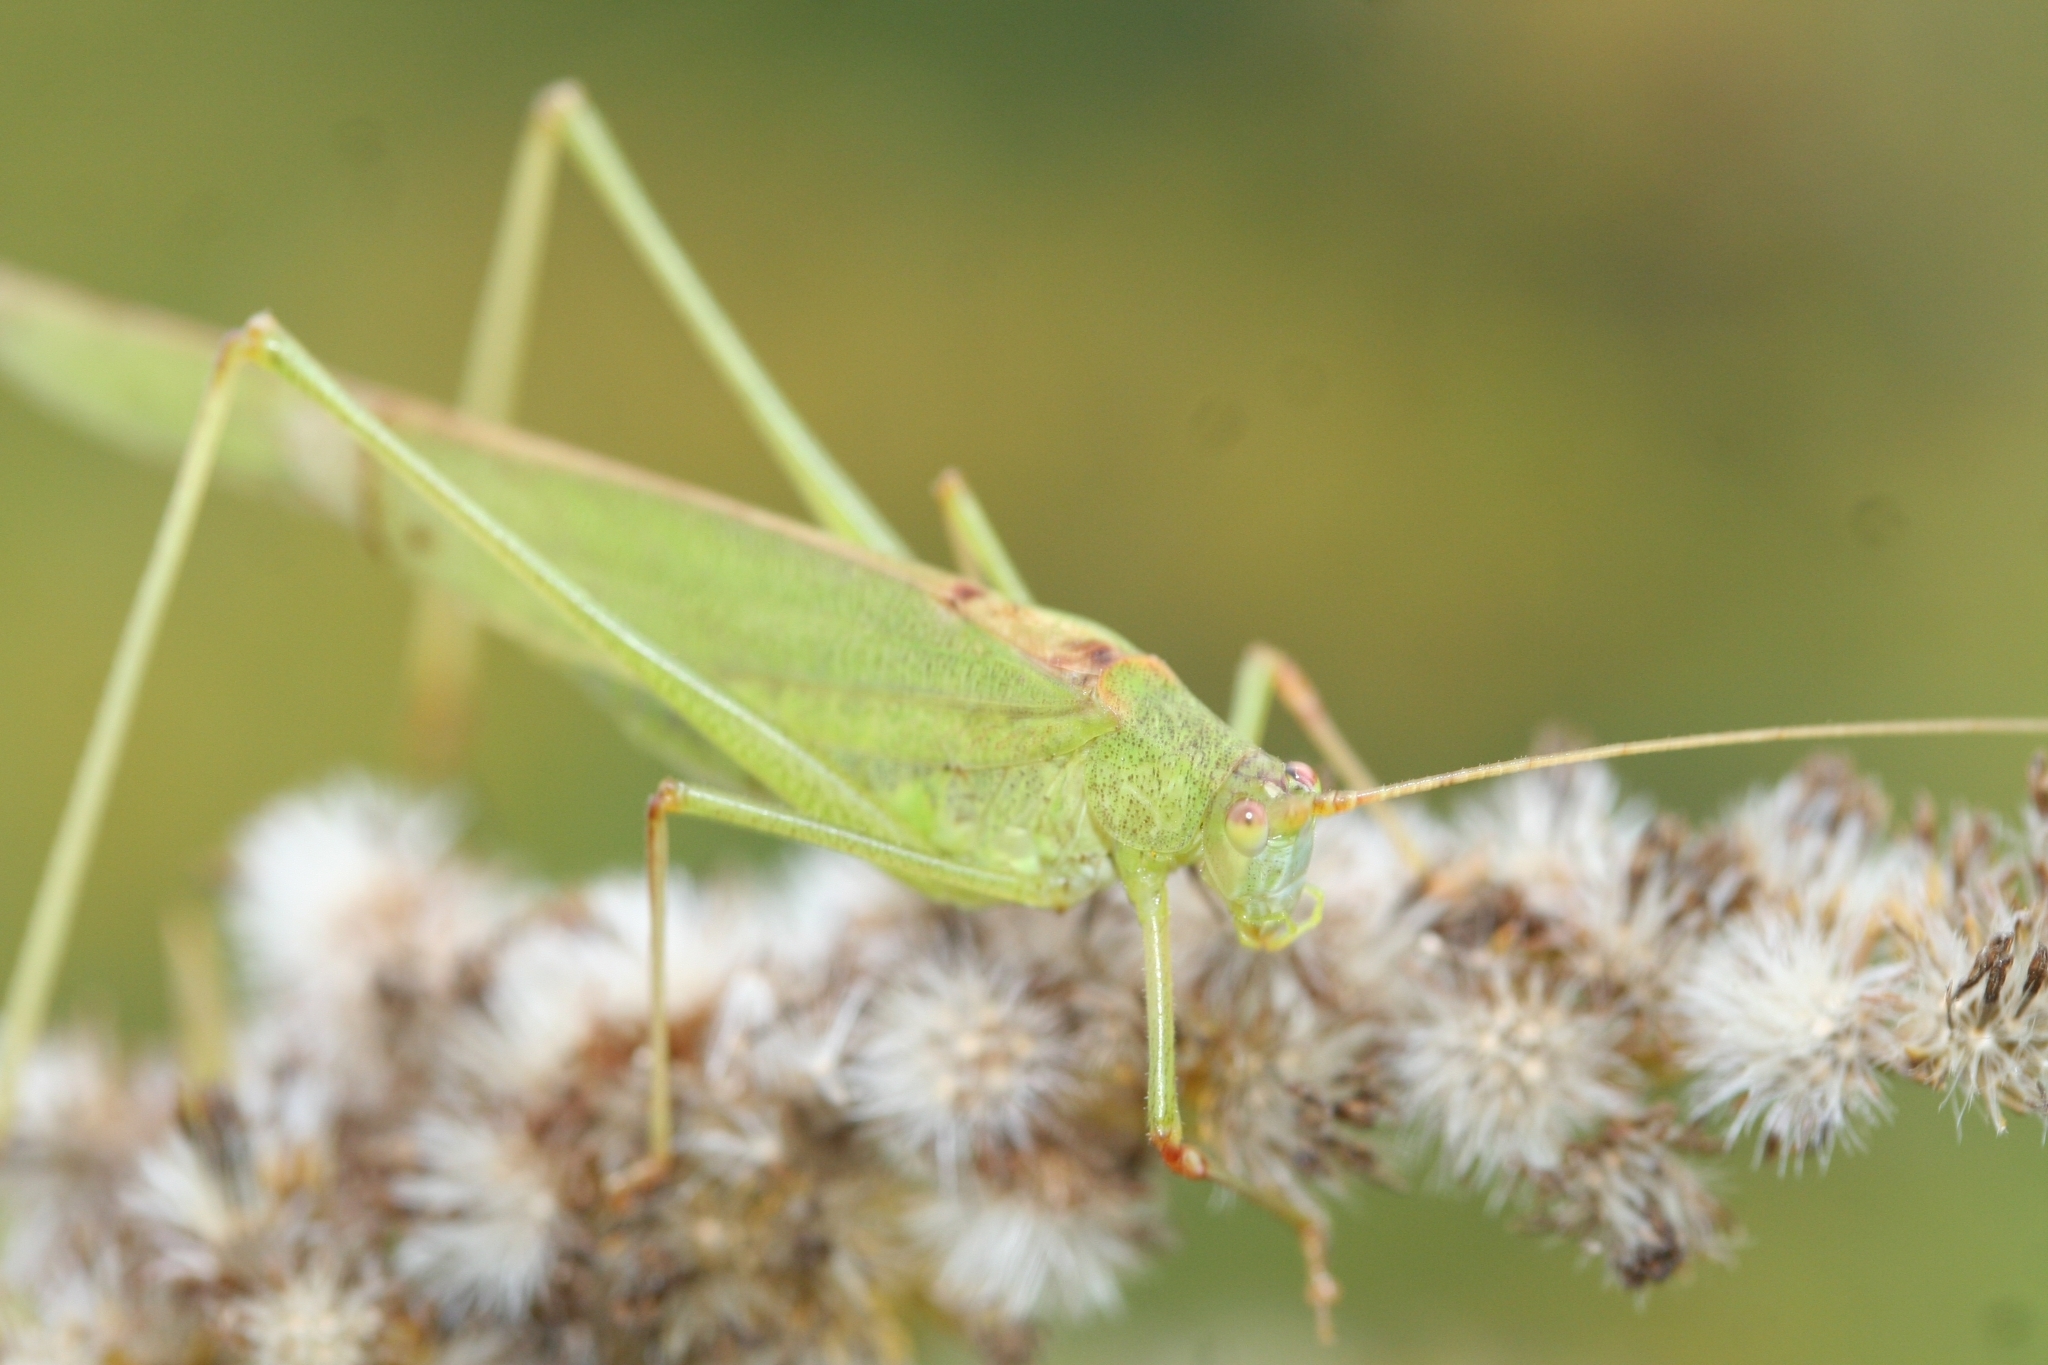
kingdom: Animalia
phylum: Arthropoda
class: Insecta
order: Orthoptera
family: Tettigoniidae
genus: Phaneroptera
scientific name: Phaneroptera falcata
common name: Sickle-bearing bush-cricket
